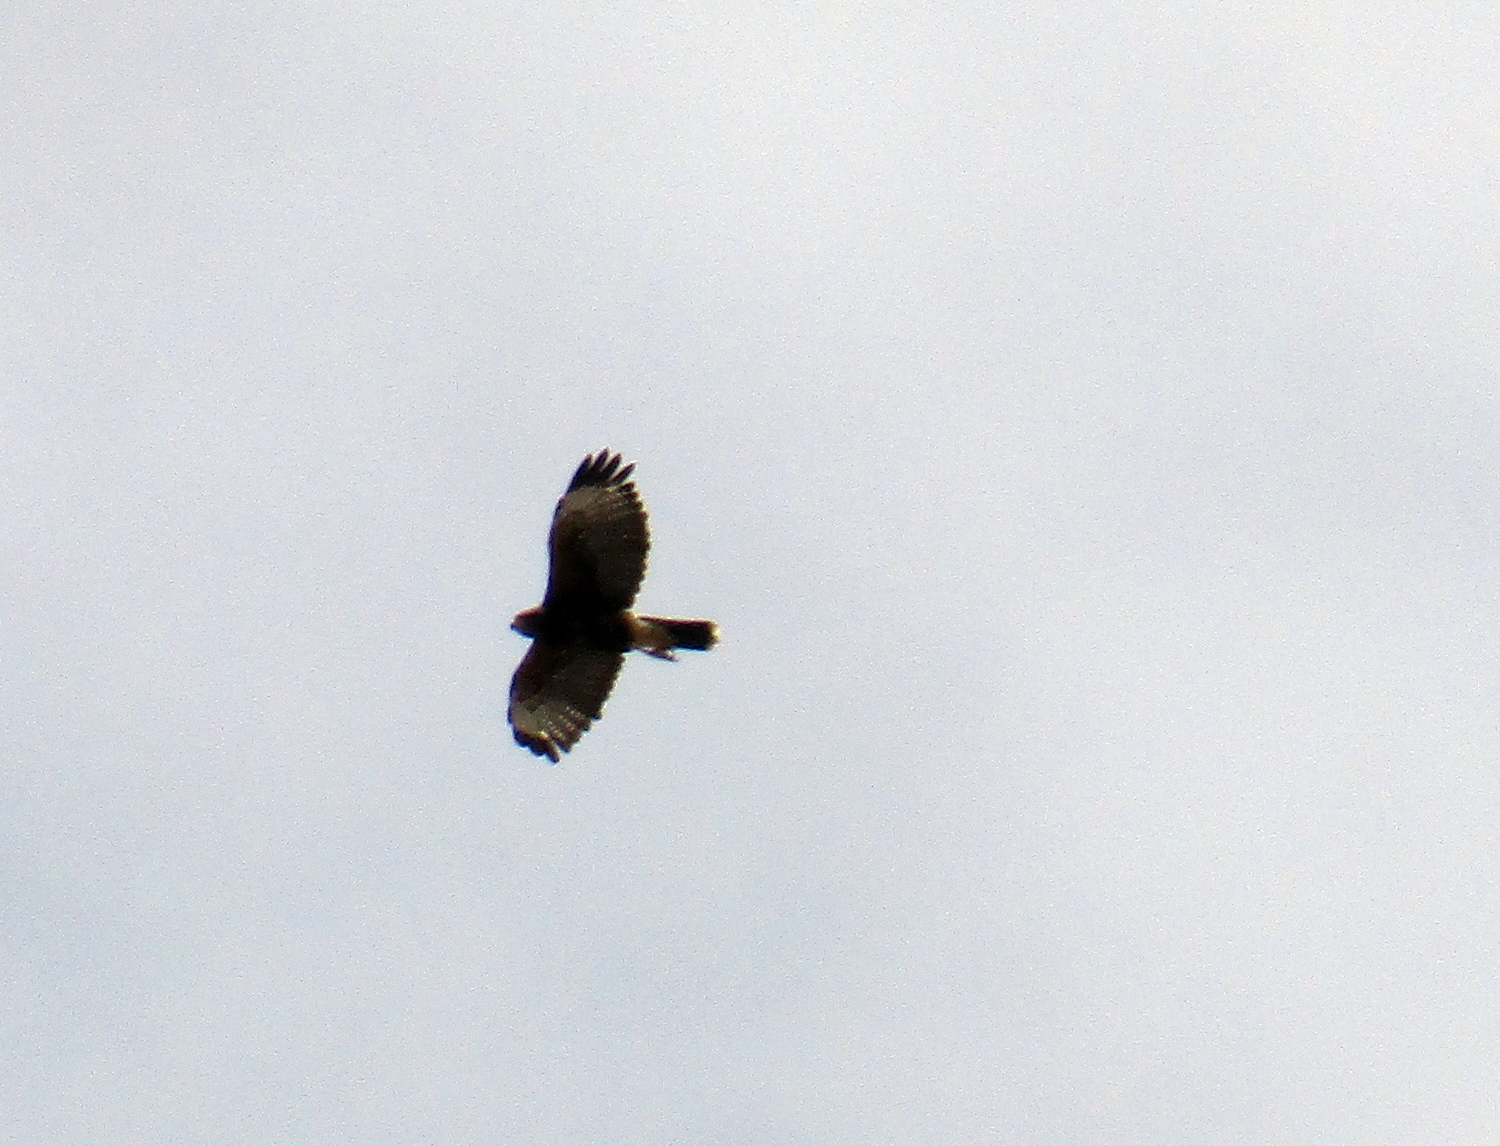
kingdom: Animalia
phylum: Chordata
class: Aves
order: Accipitriformes
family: Accipitridae
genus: Parabuteo
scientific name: Parabuteo unicinctus
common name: Harris's hawk
